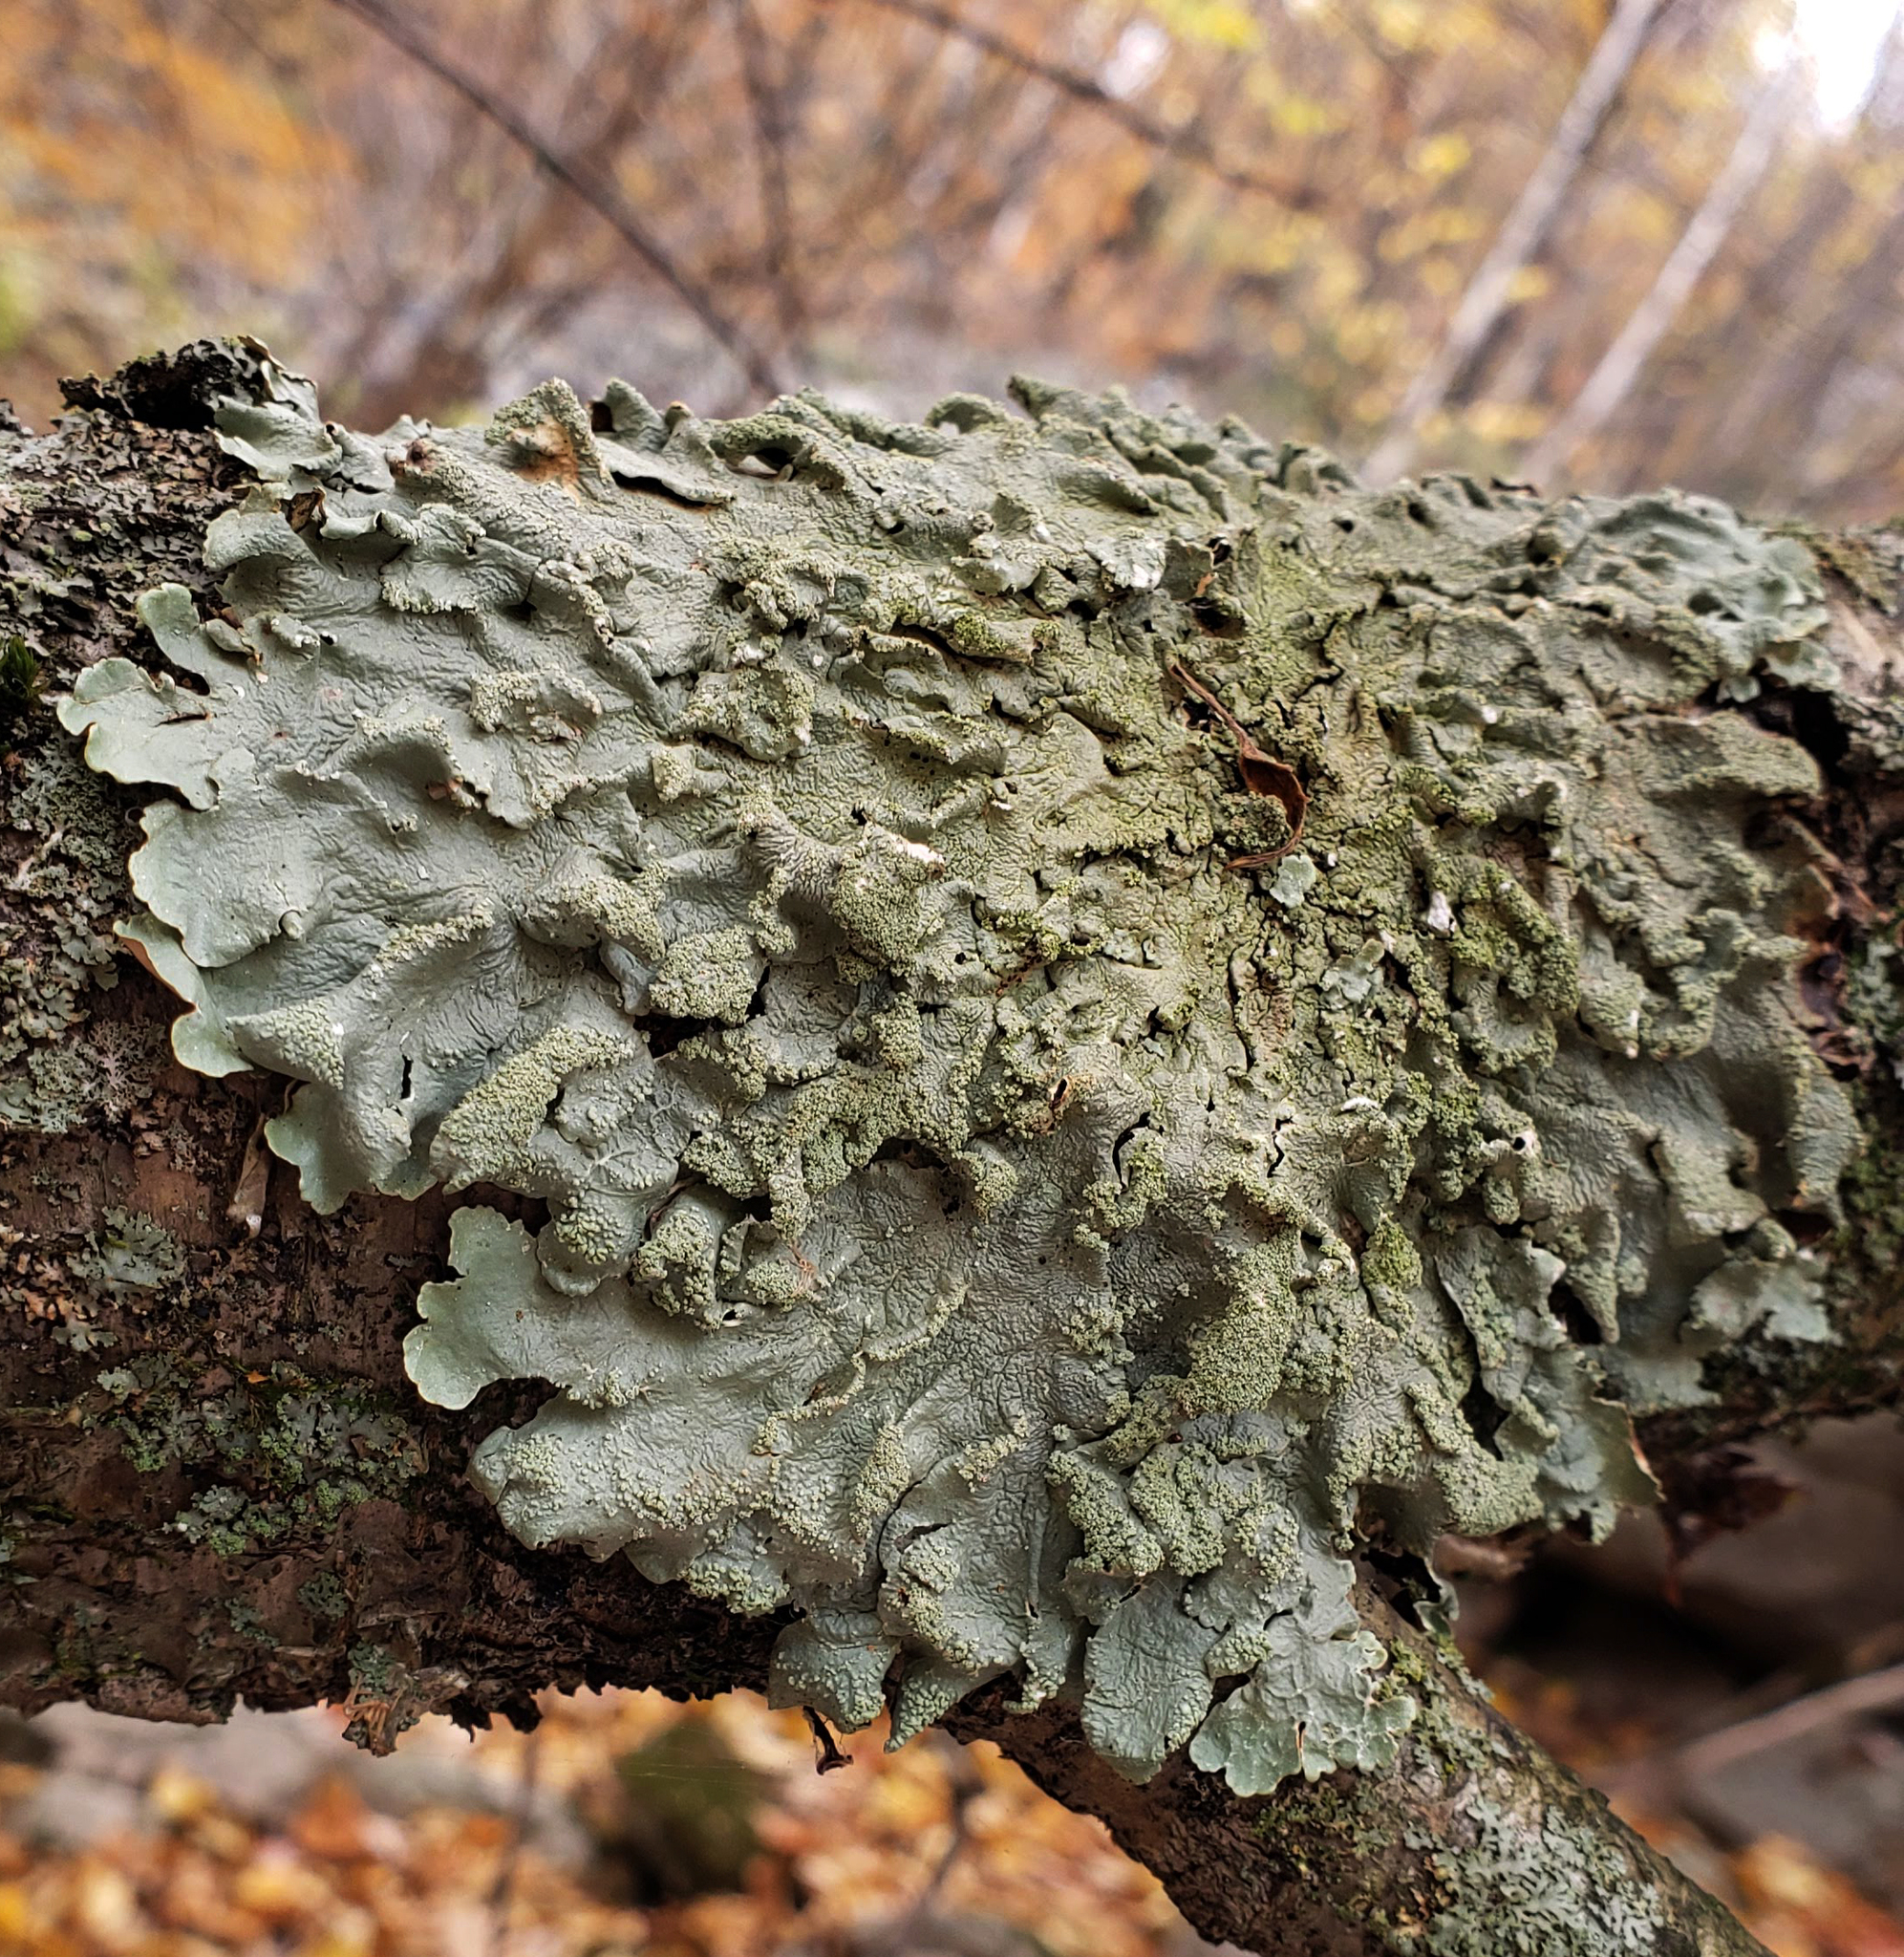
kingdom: Fungi
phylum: Ascomycota
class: Lecanoromycetes
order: Lecanorales
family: Parmeliaceae
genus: Flavoparmelia
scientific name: Flavoparmelia caperata
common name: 40-mile per hour lichen
